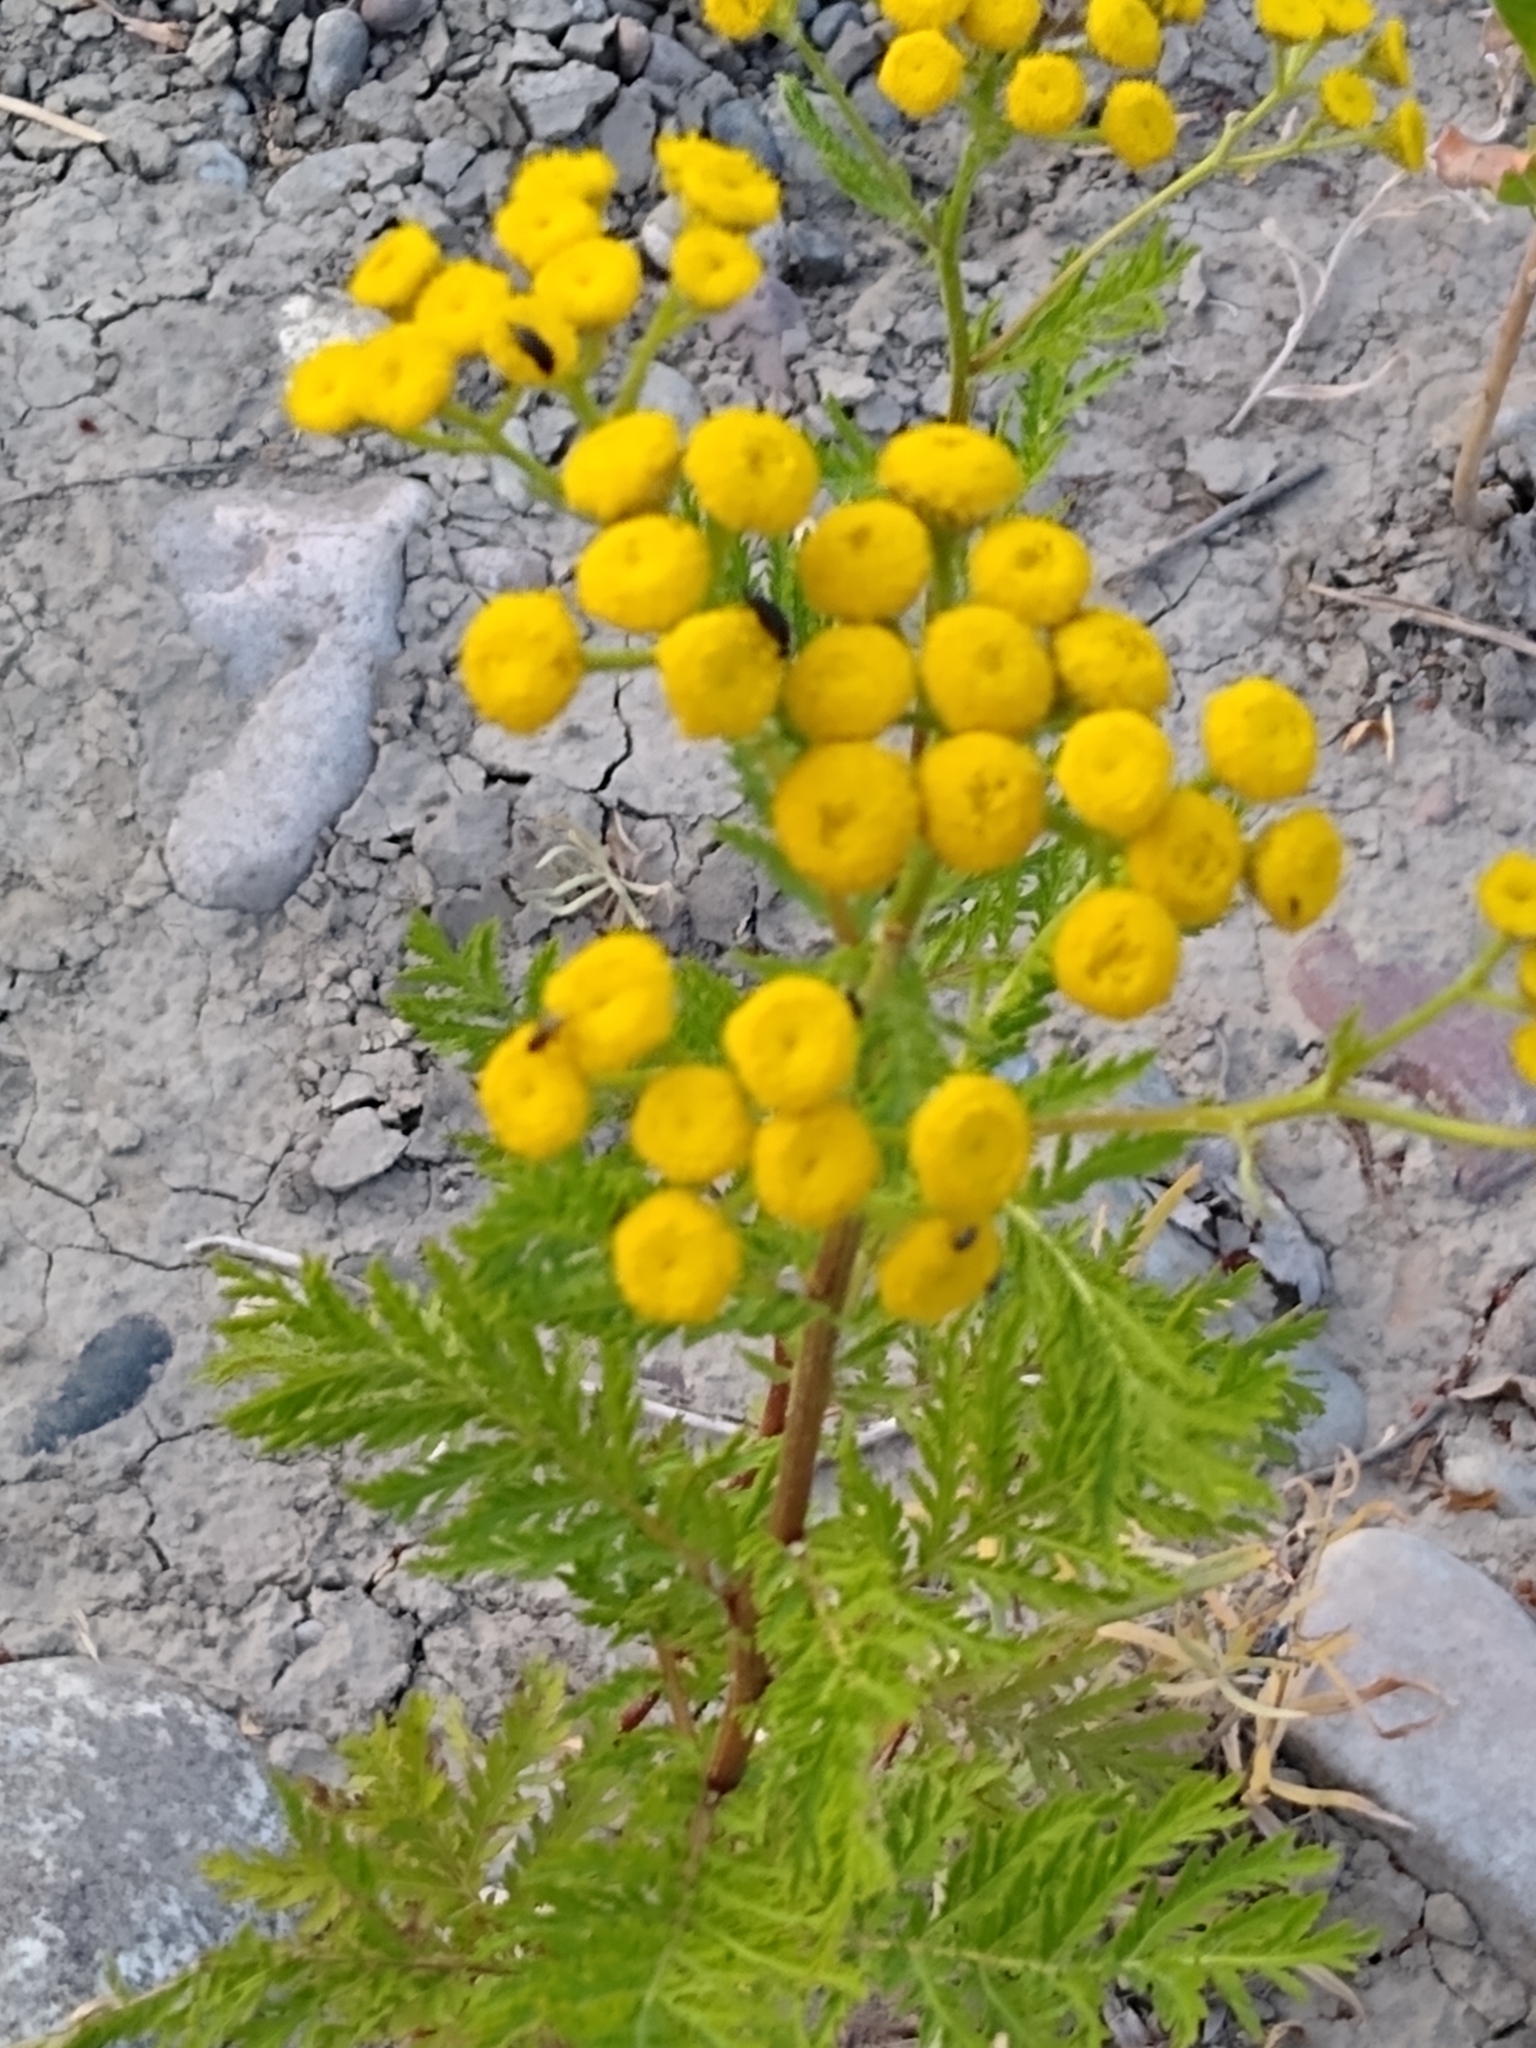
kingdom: Plantae
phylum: Tracheophyta
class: Magnoliopsida
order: Asterales
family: Asteraceae
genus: Tanacetum
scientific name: Tanacetum vulgare
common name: Common tansy
